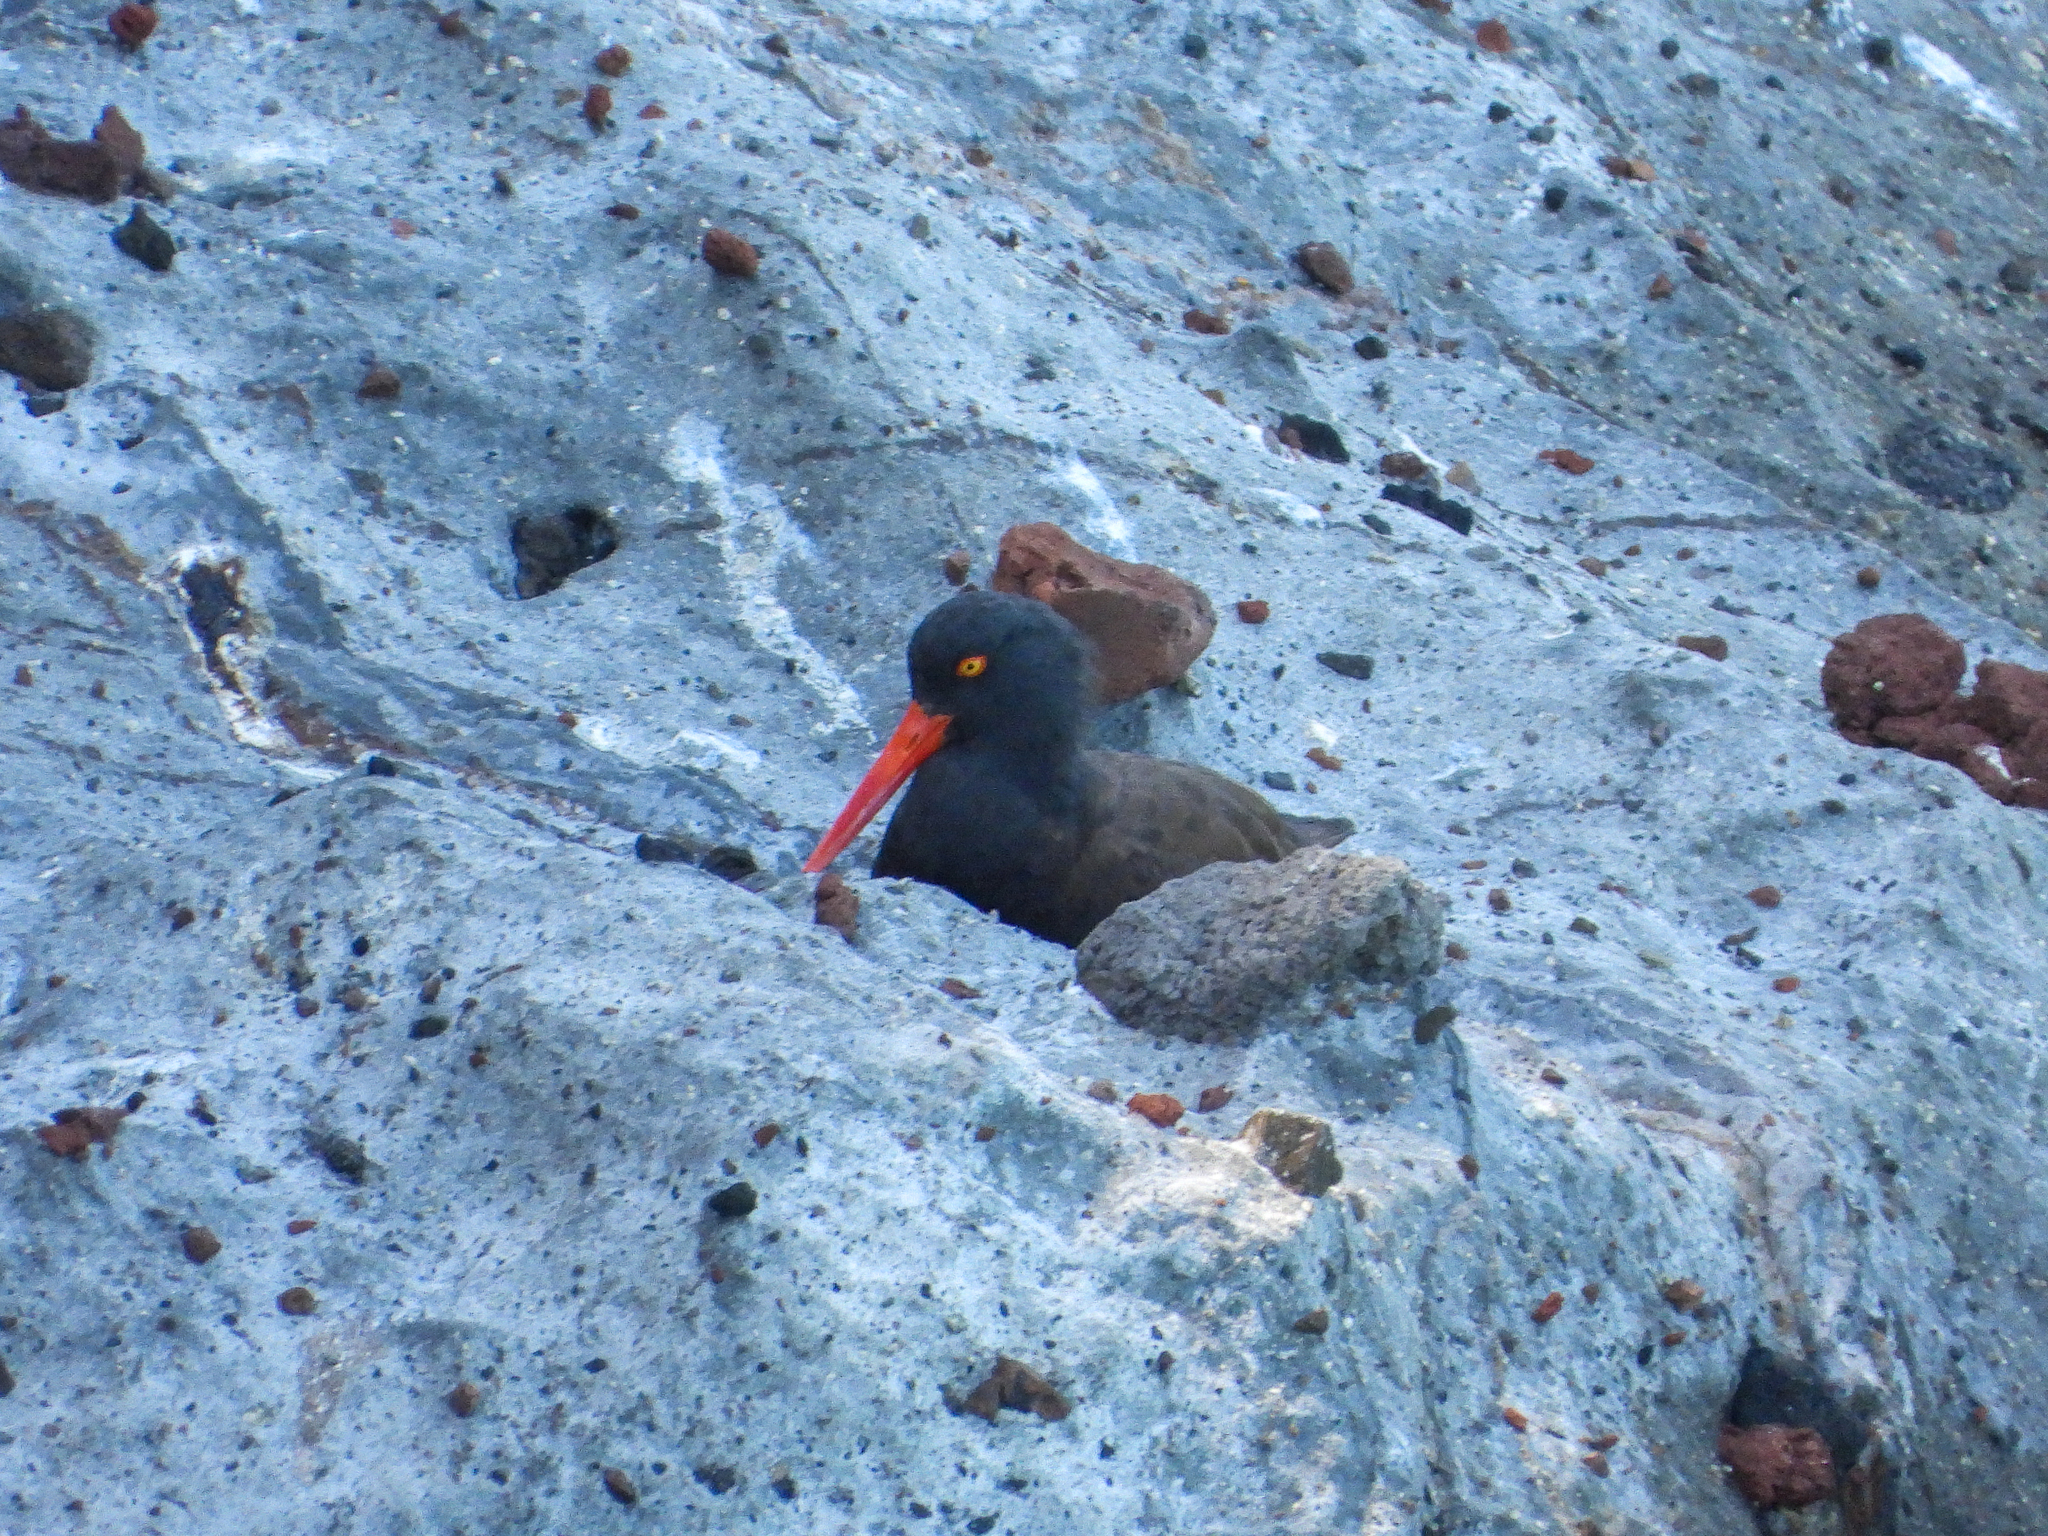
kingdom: Animalia
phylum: Chordata
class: Aves
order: Charadriiformes
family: Haematopodidae
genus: Haematopus
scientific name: Haematopus bachmani
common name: Black oystercatcher
